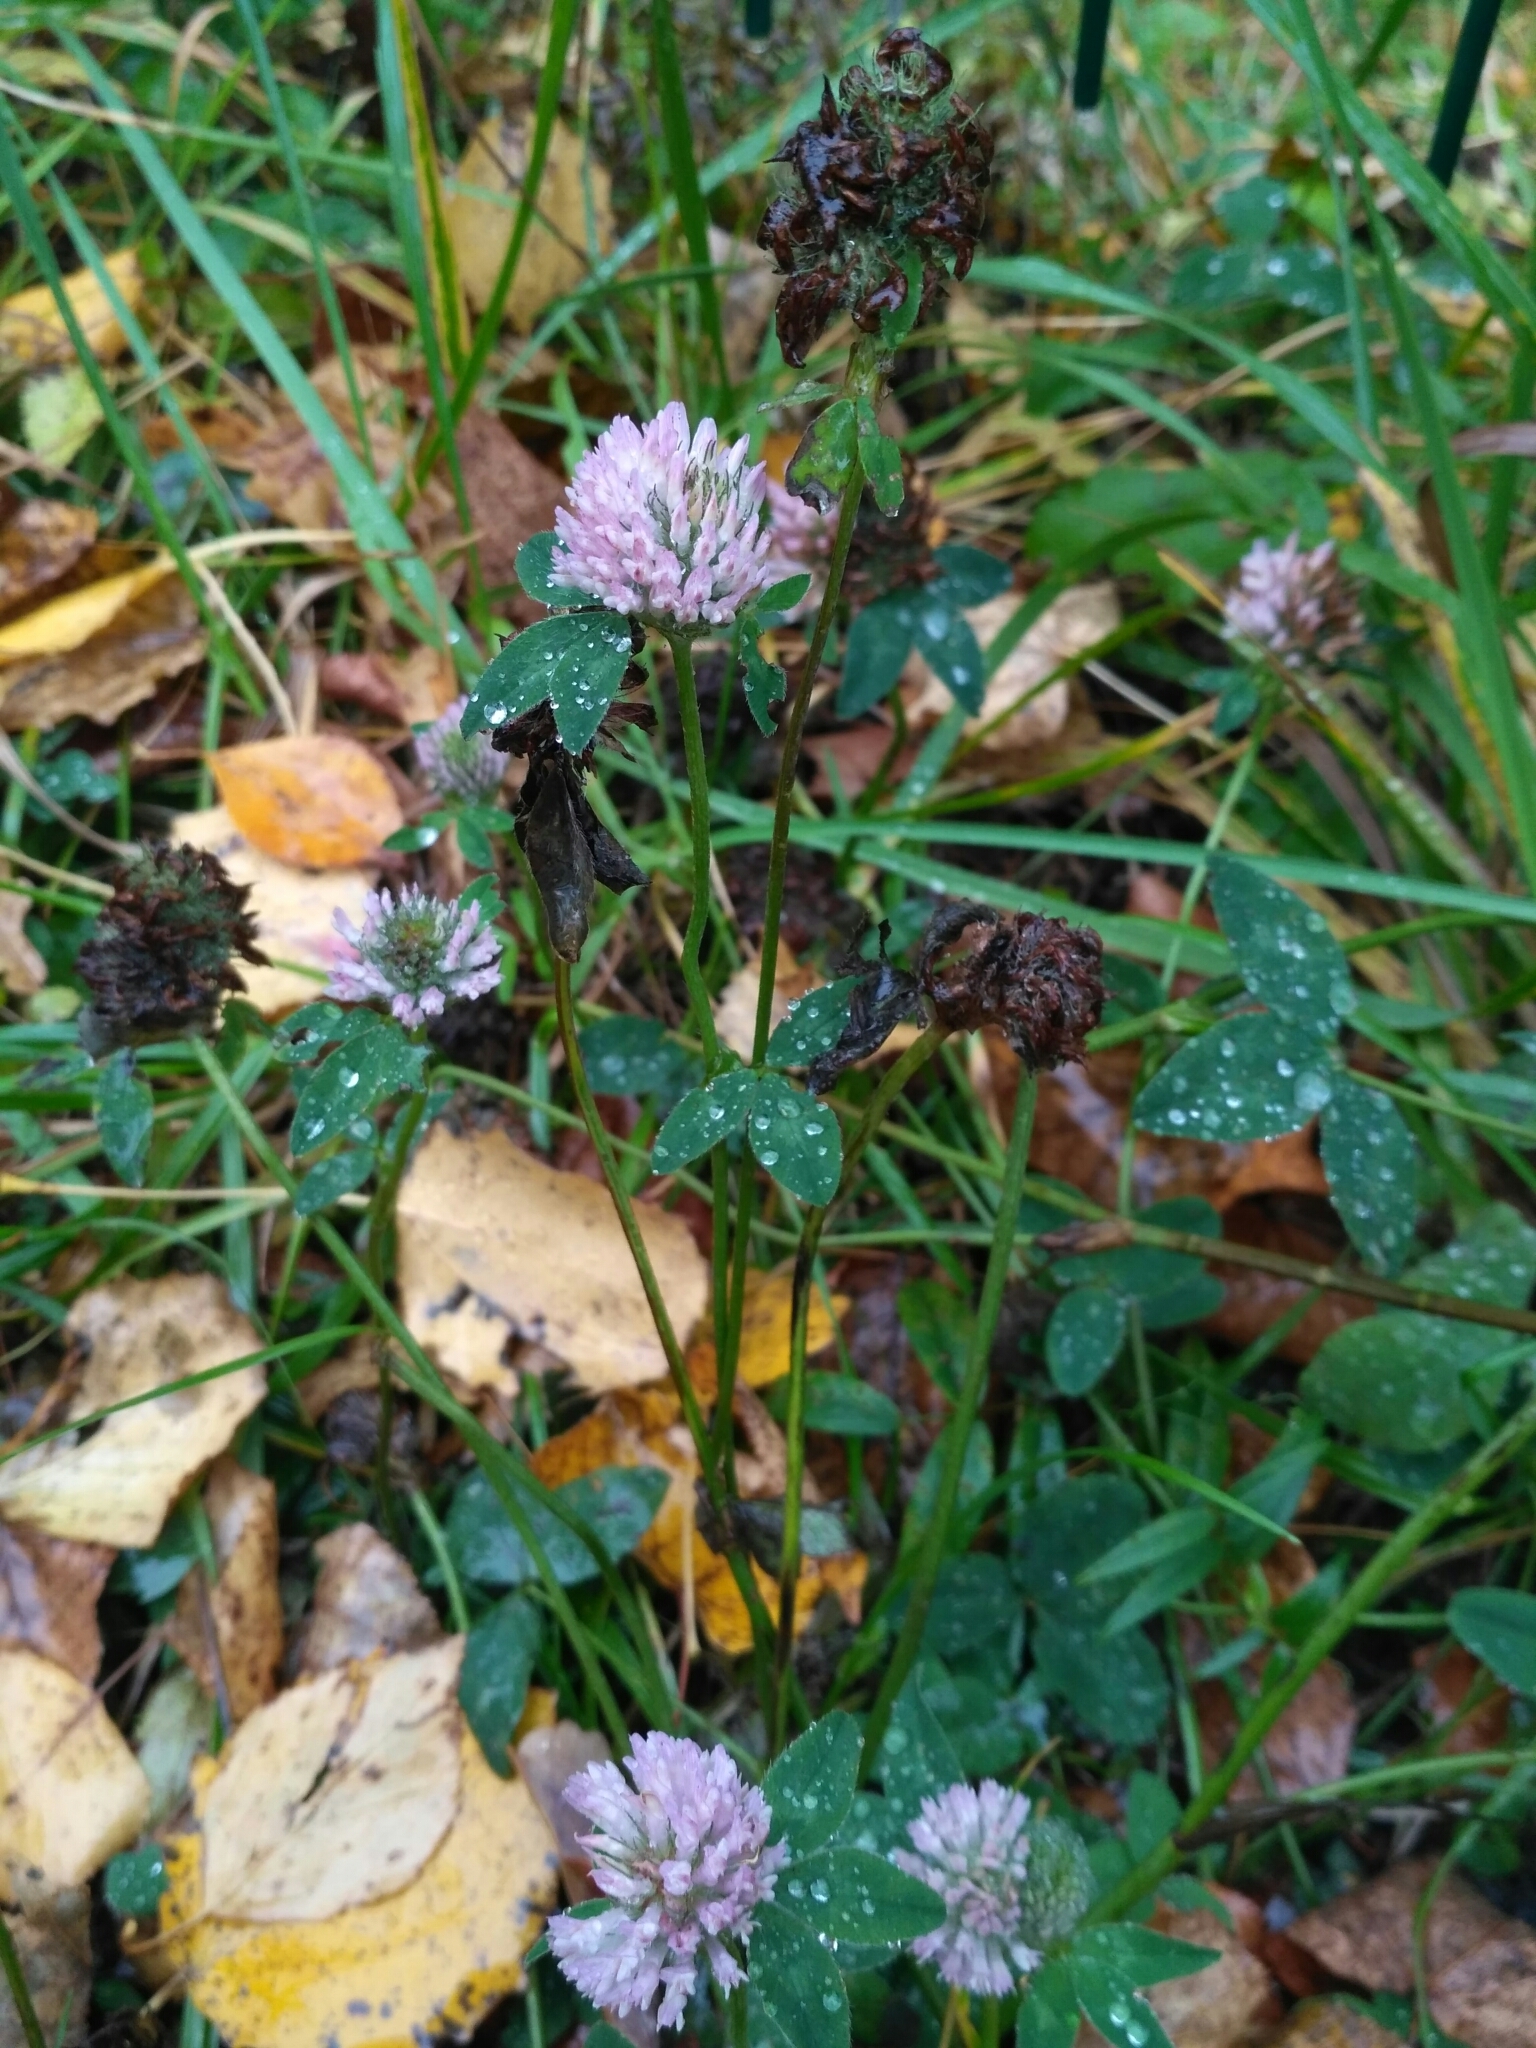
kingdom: Plantae
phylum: Tracheophyta
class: Magnoliopsida
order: Fabales
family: Fabaceae
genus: Trifolium
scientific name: Trifolium pratense
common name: Red clover
